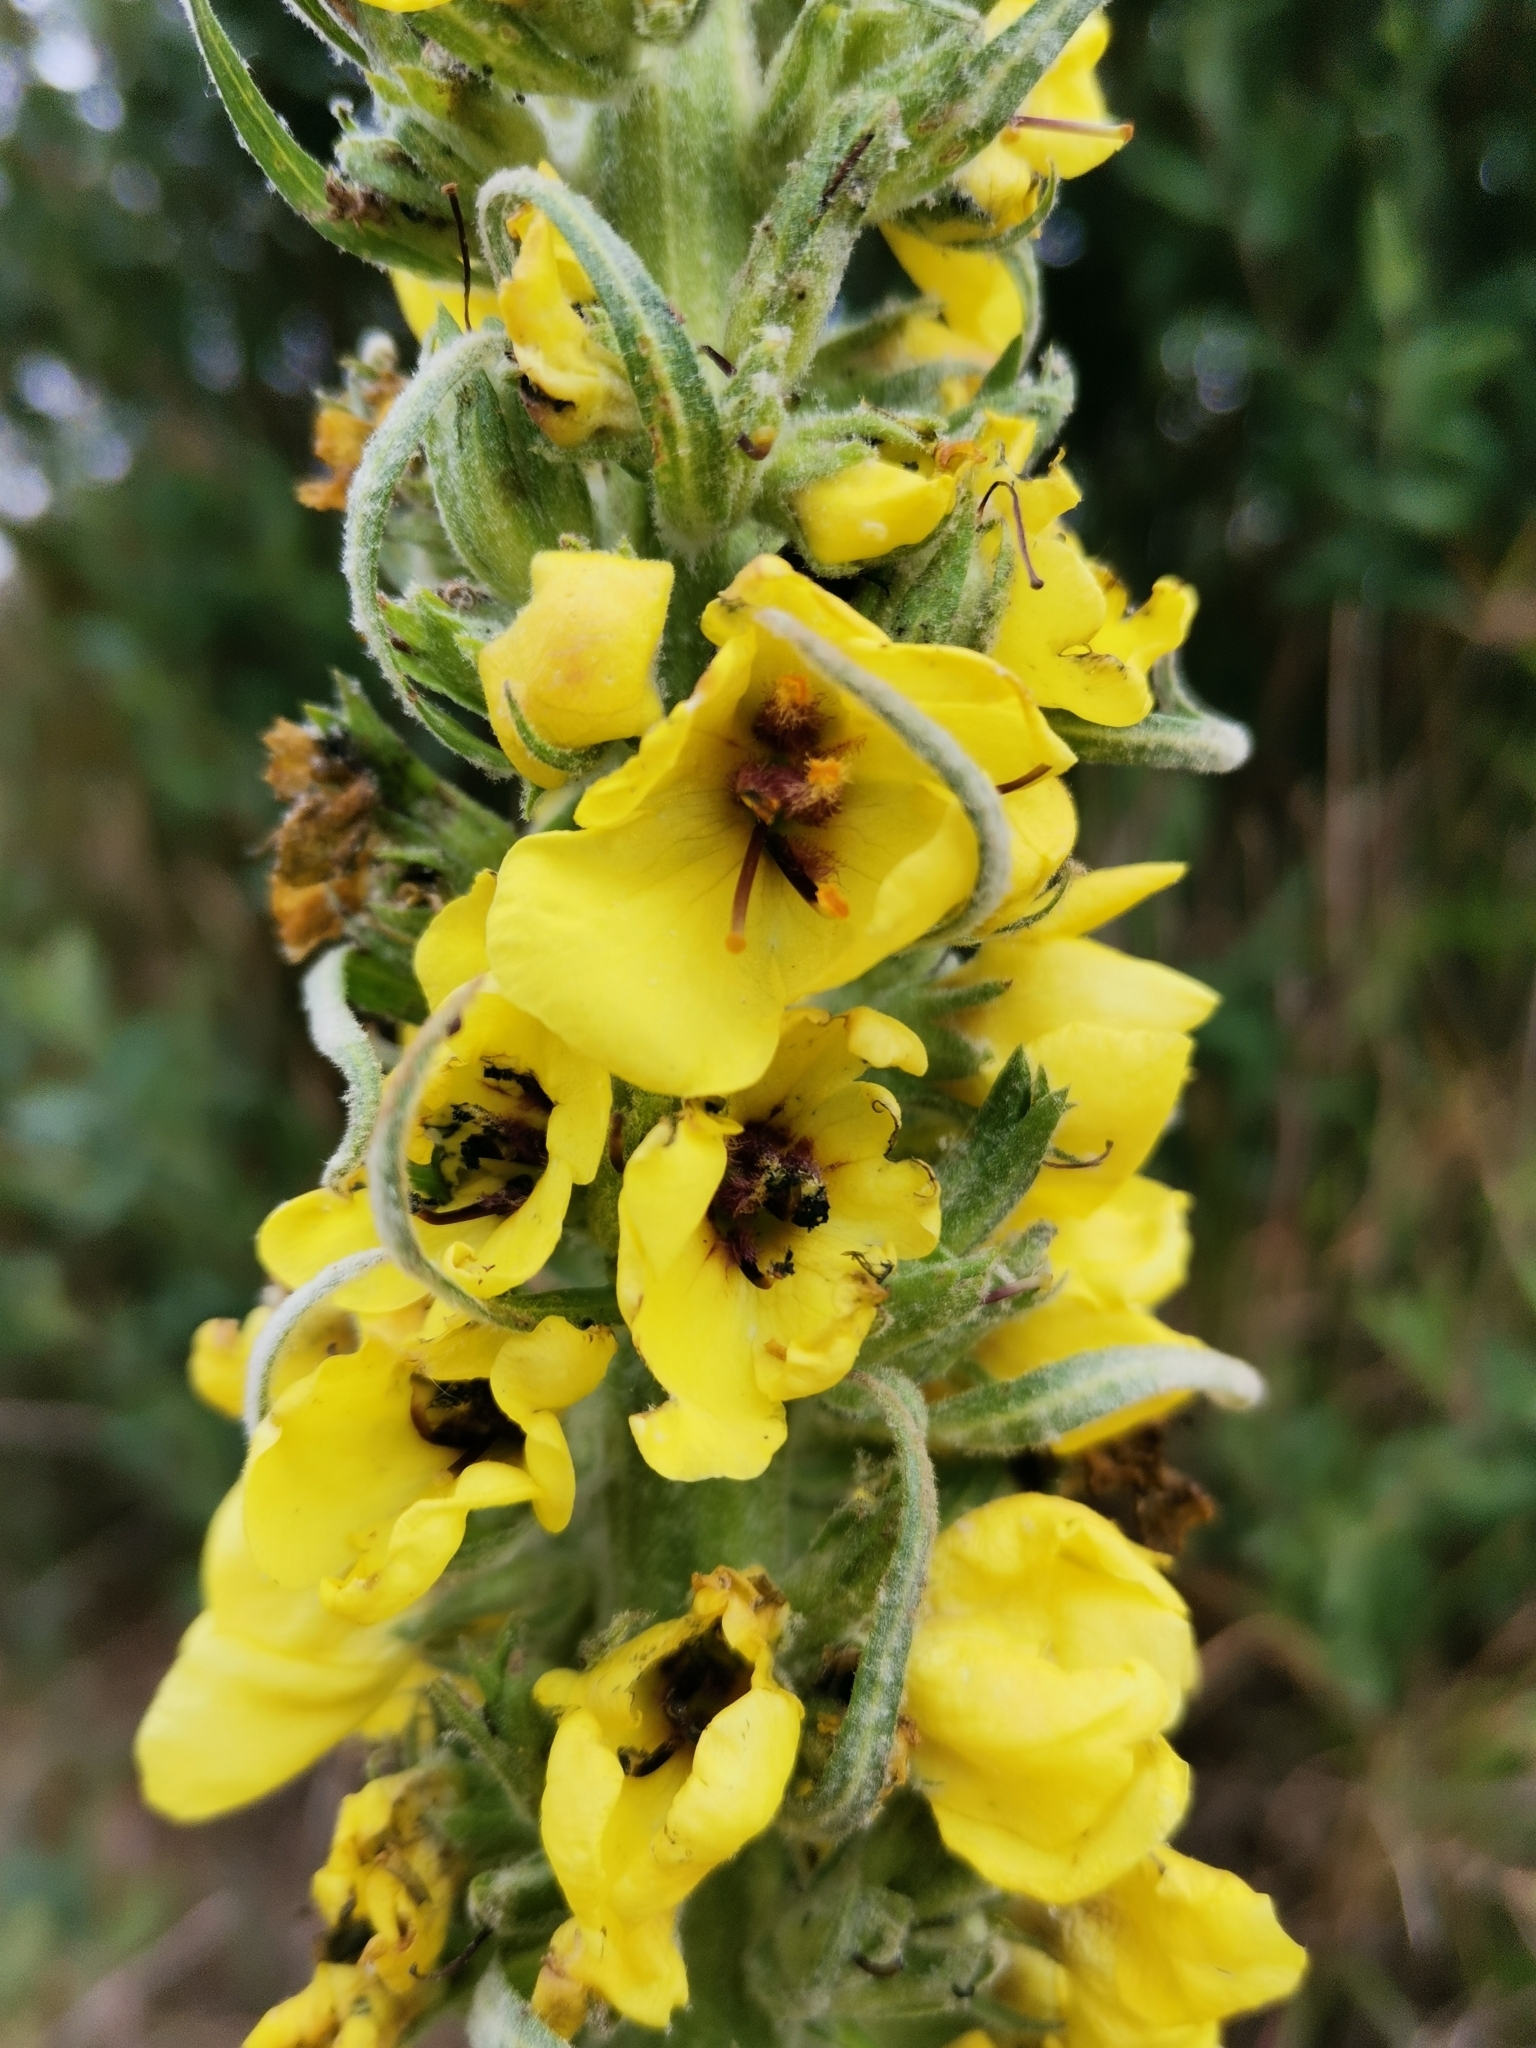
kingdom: Plantae
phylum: Tracheophyta
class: Magnoliopsida
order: Lamiales
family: Scrophulariaceae
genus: Verbascum
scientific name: Verbascum boerhavii
